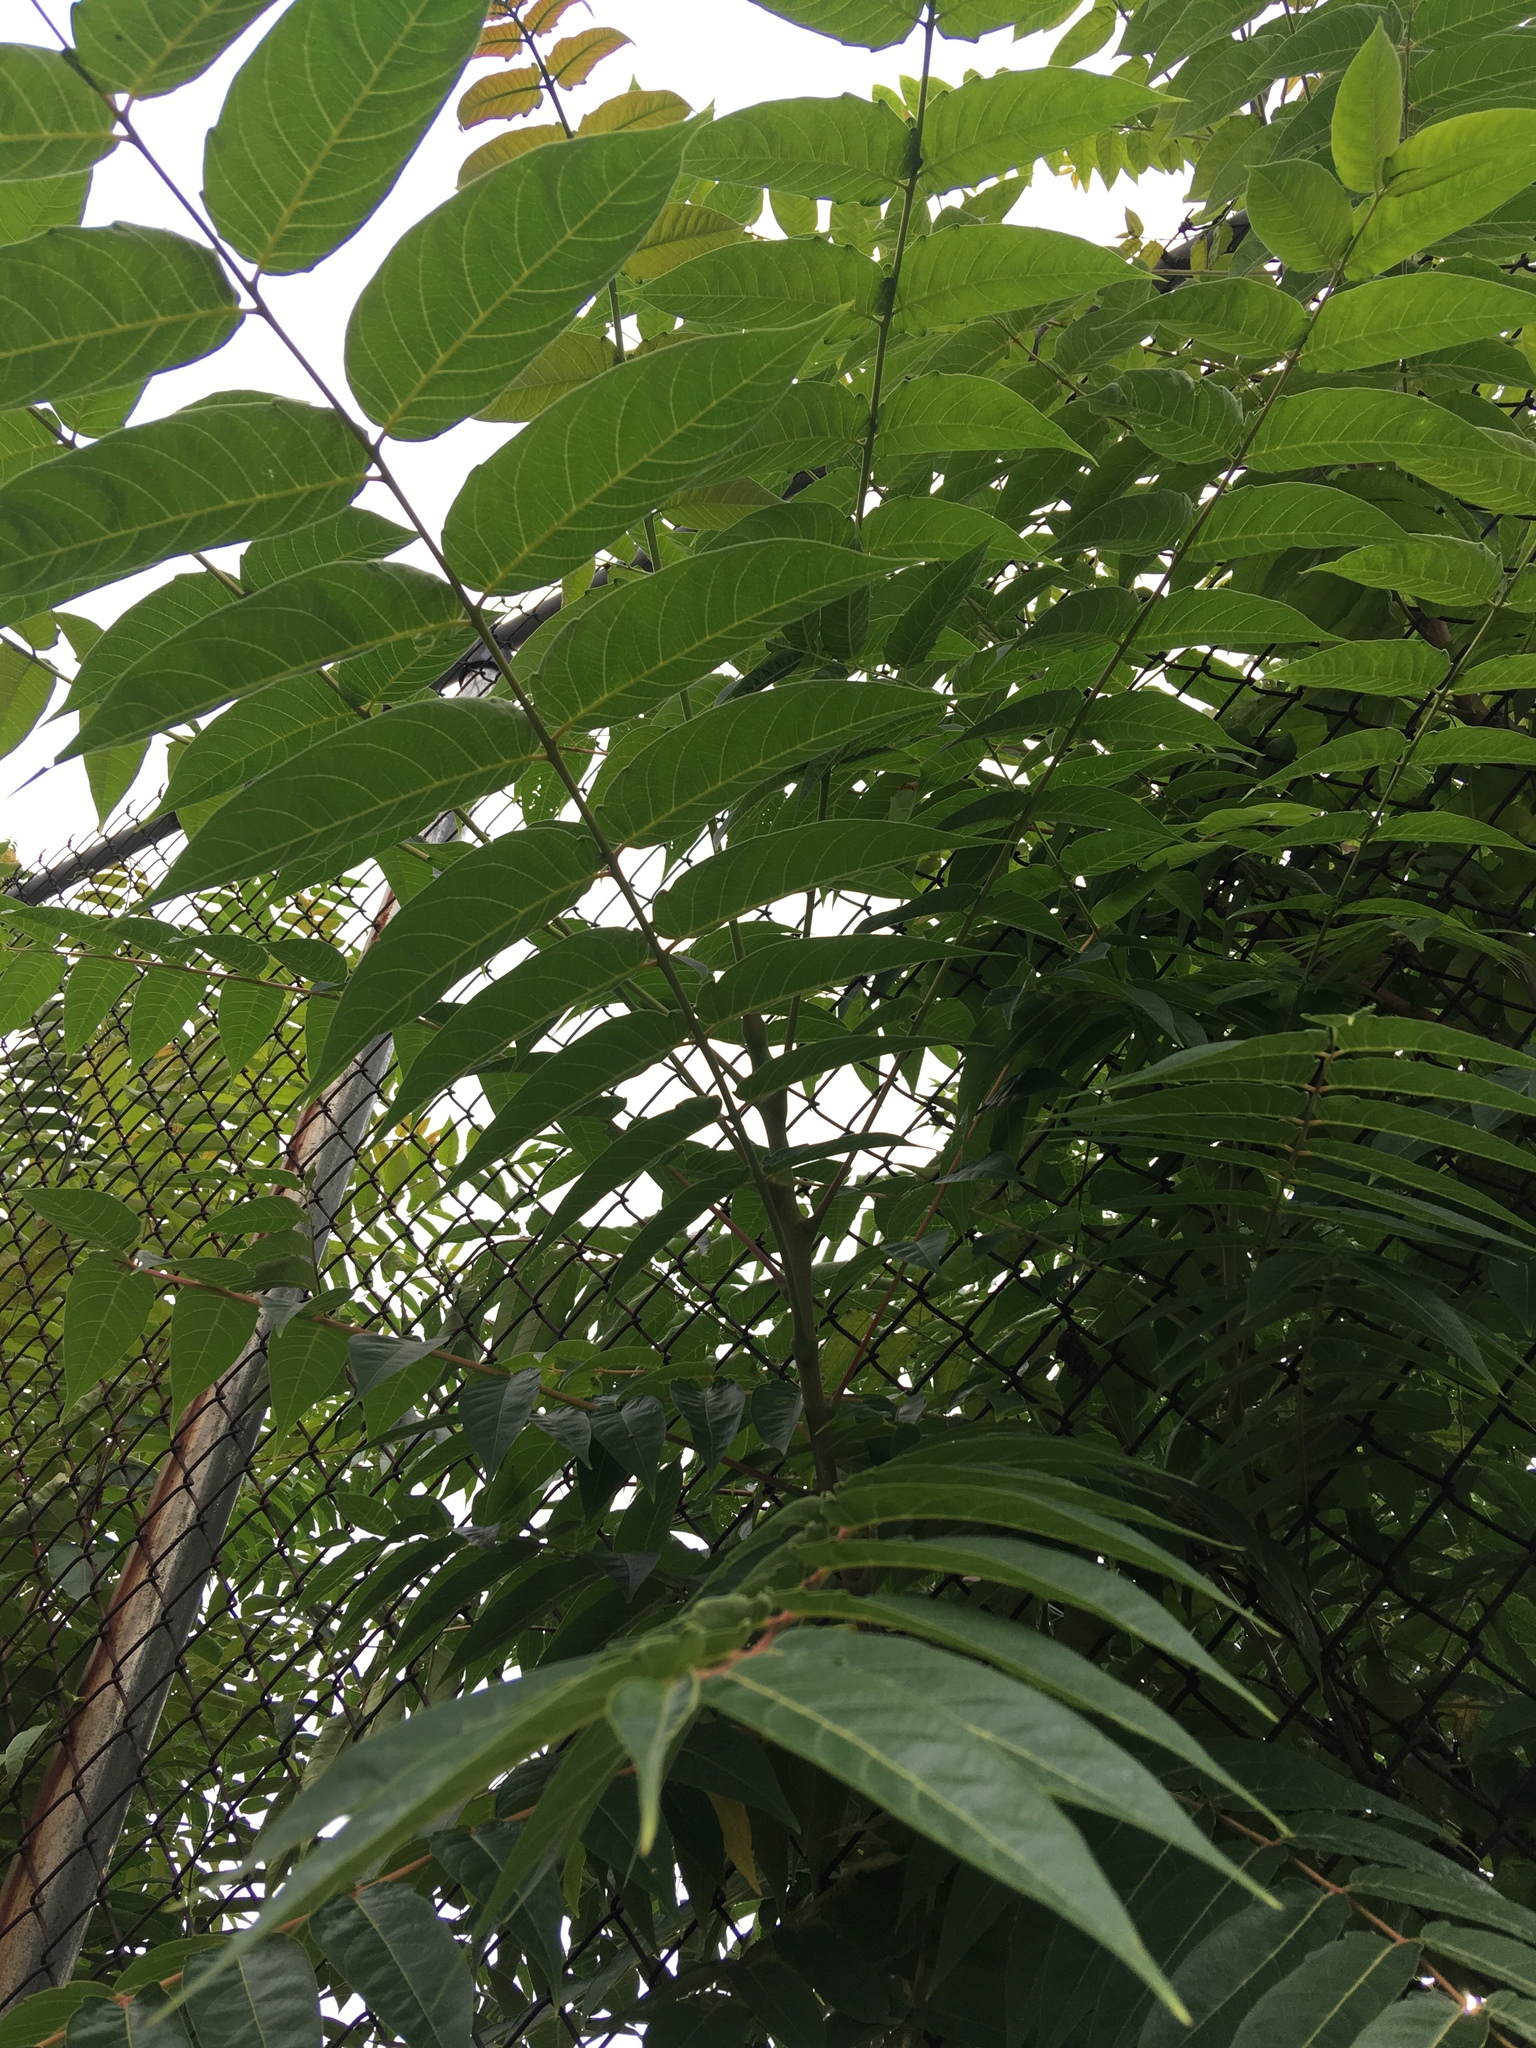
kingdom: Plantae
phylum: Tracheophyta
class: Magnoliopsida
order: Sapindales
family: Simaroubaceae
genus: Ailanthus
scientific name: Ailanthus altissima
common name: Tree-of-heaven
